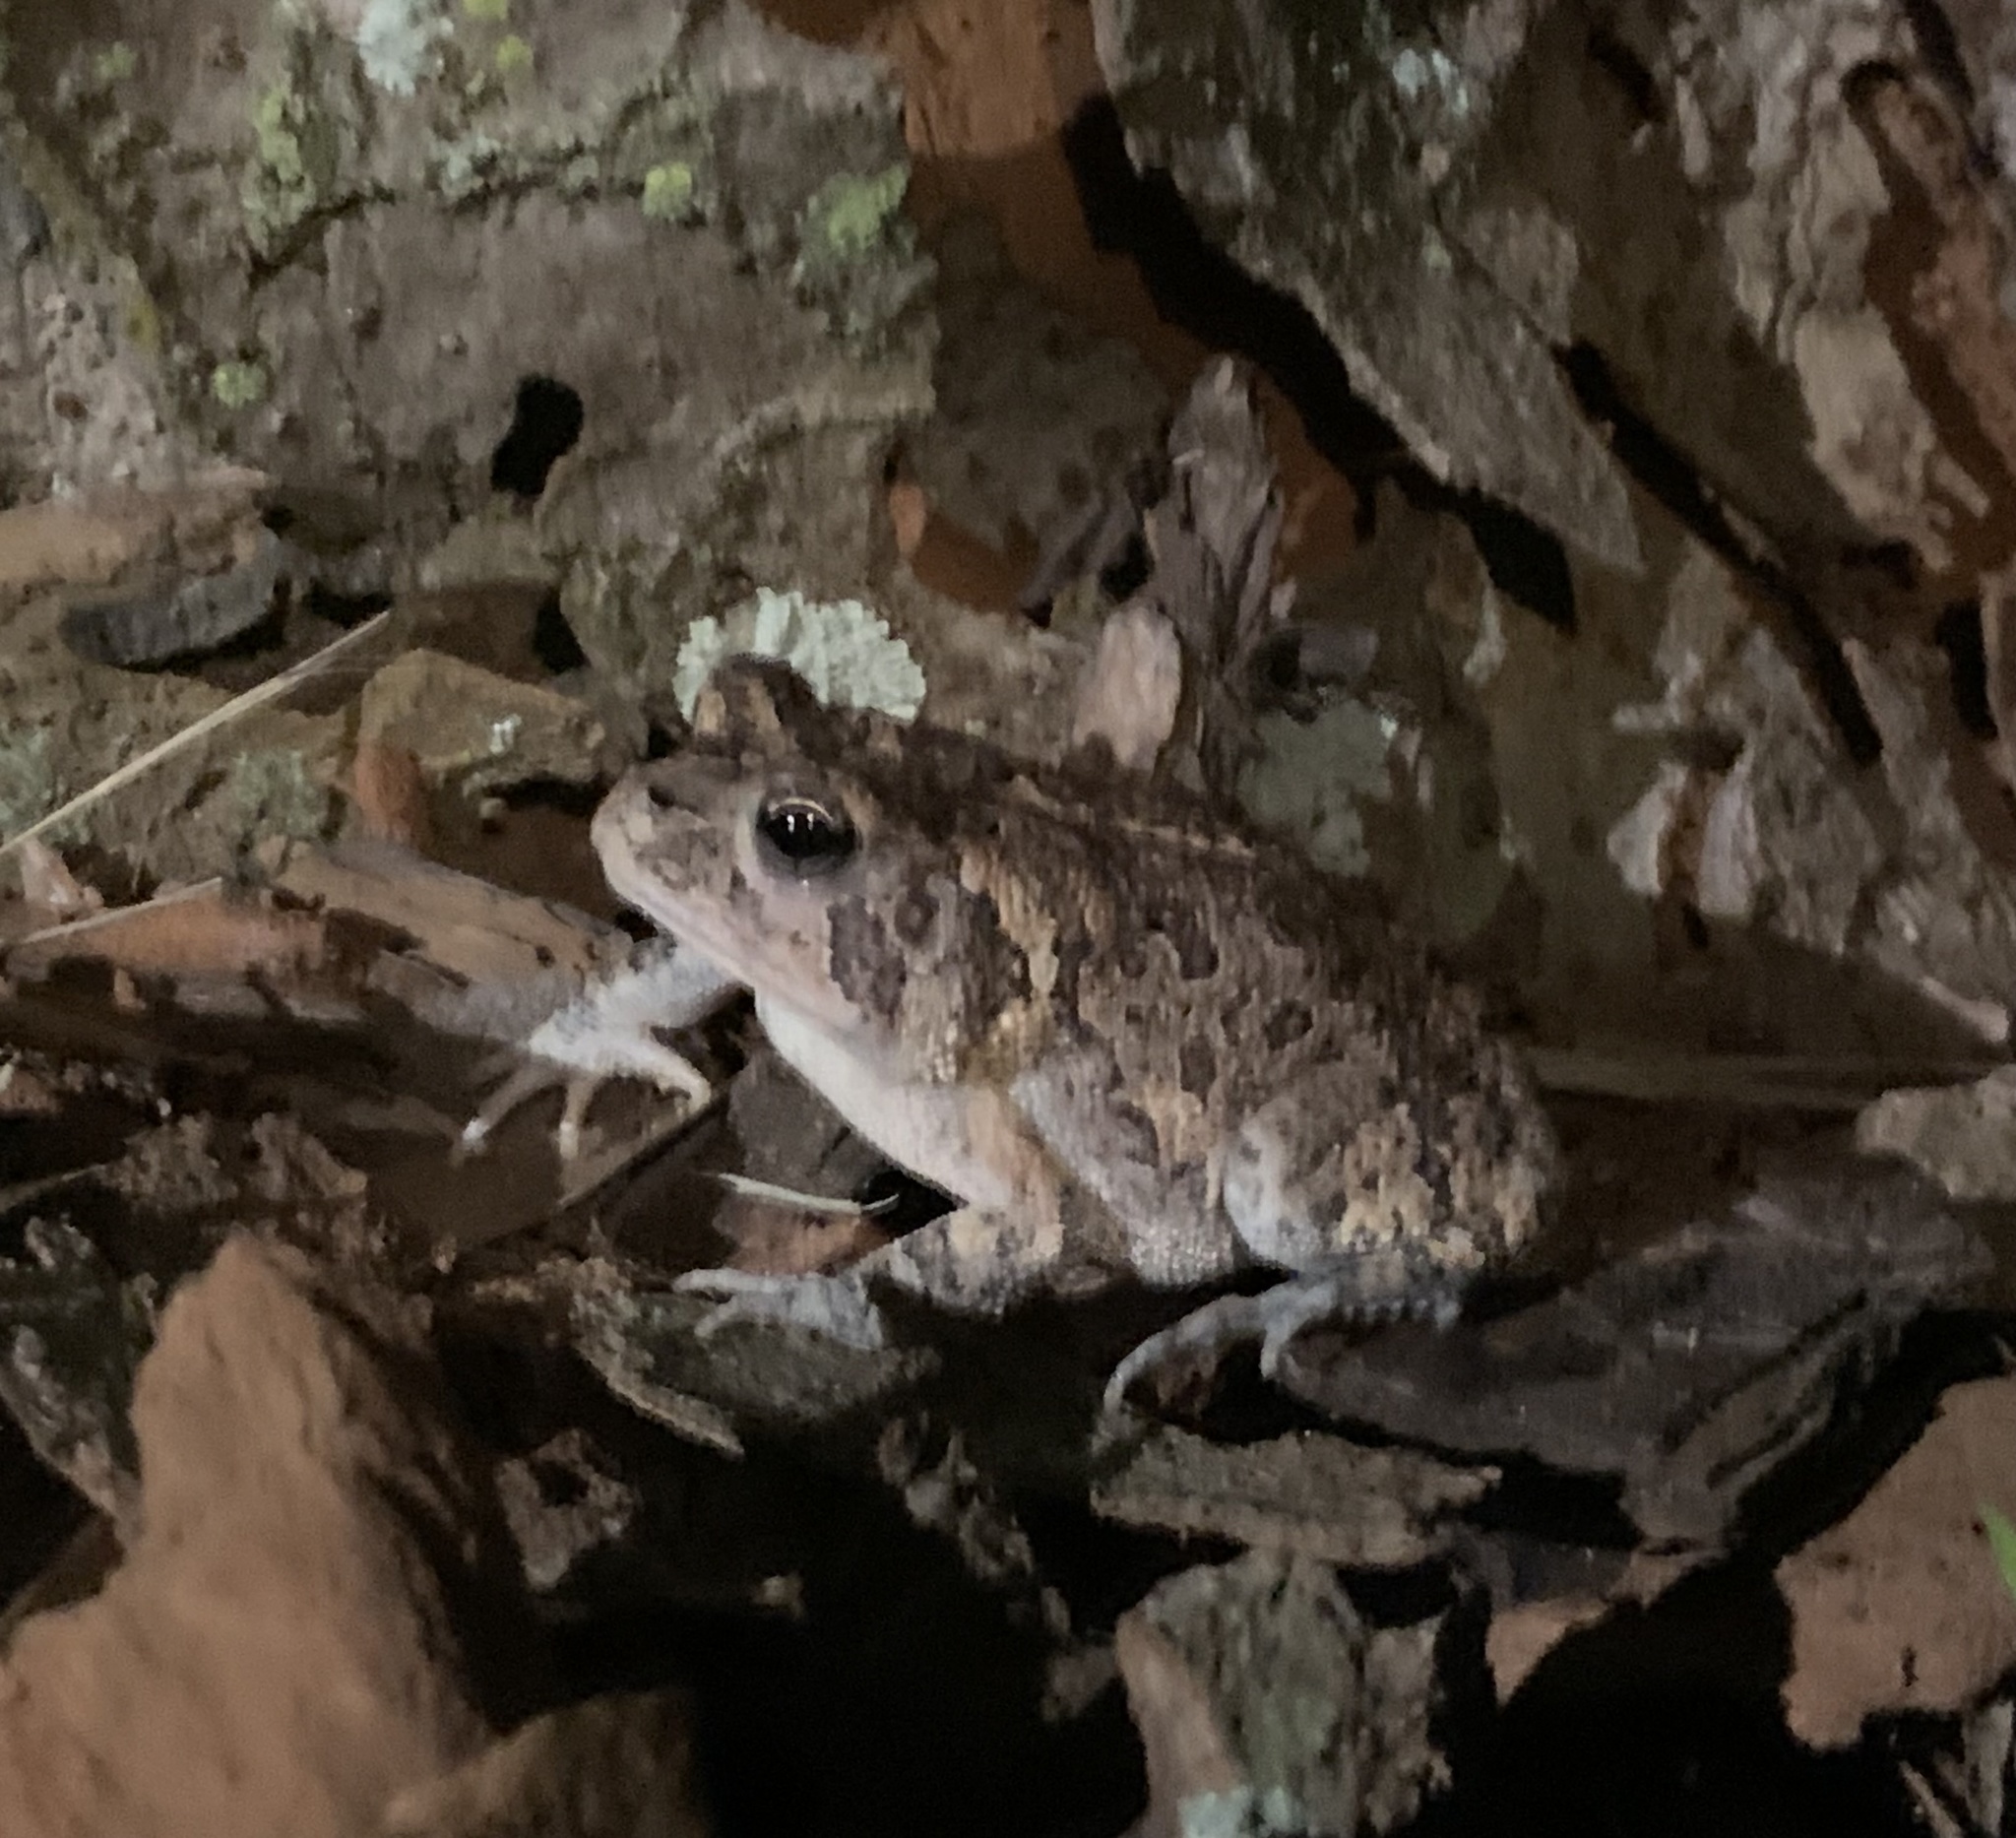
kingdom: Animalia
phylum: Chordata
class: Amphibia
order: Anura
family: Bufonidae
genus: Anaxyrus
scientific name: Anaxyrus terrestris
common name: Southern toad
